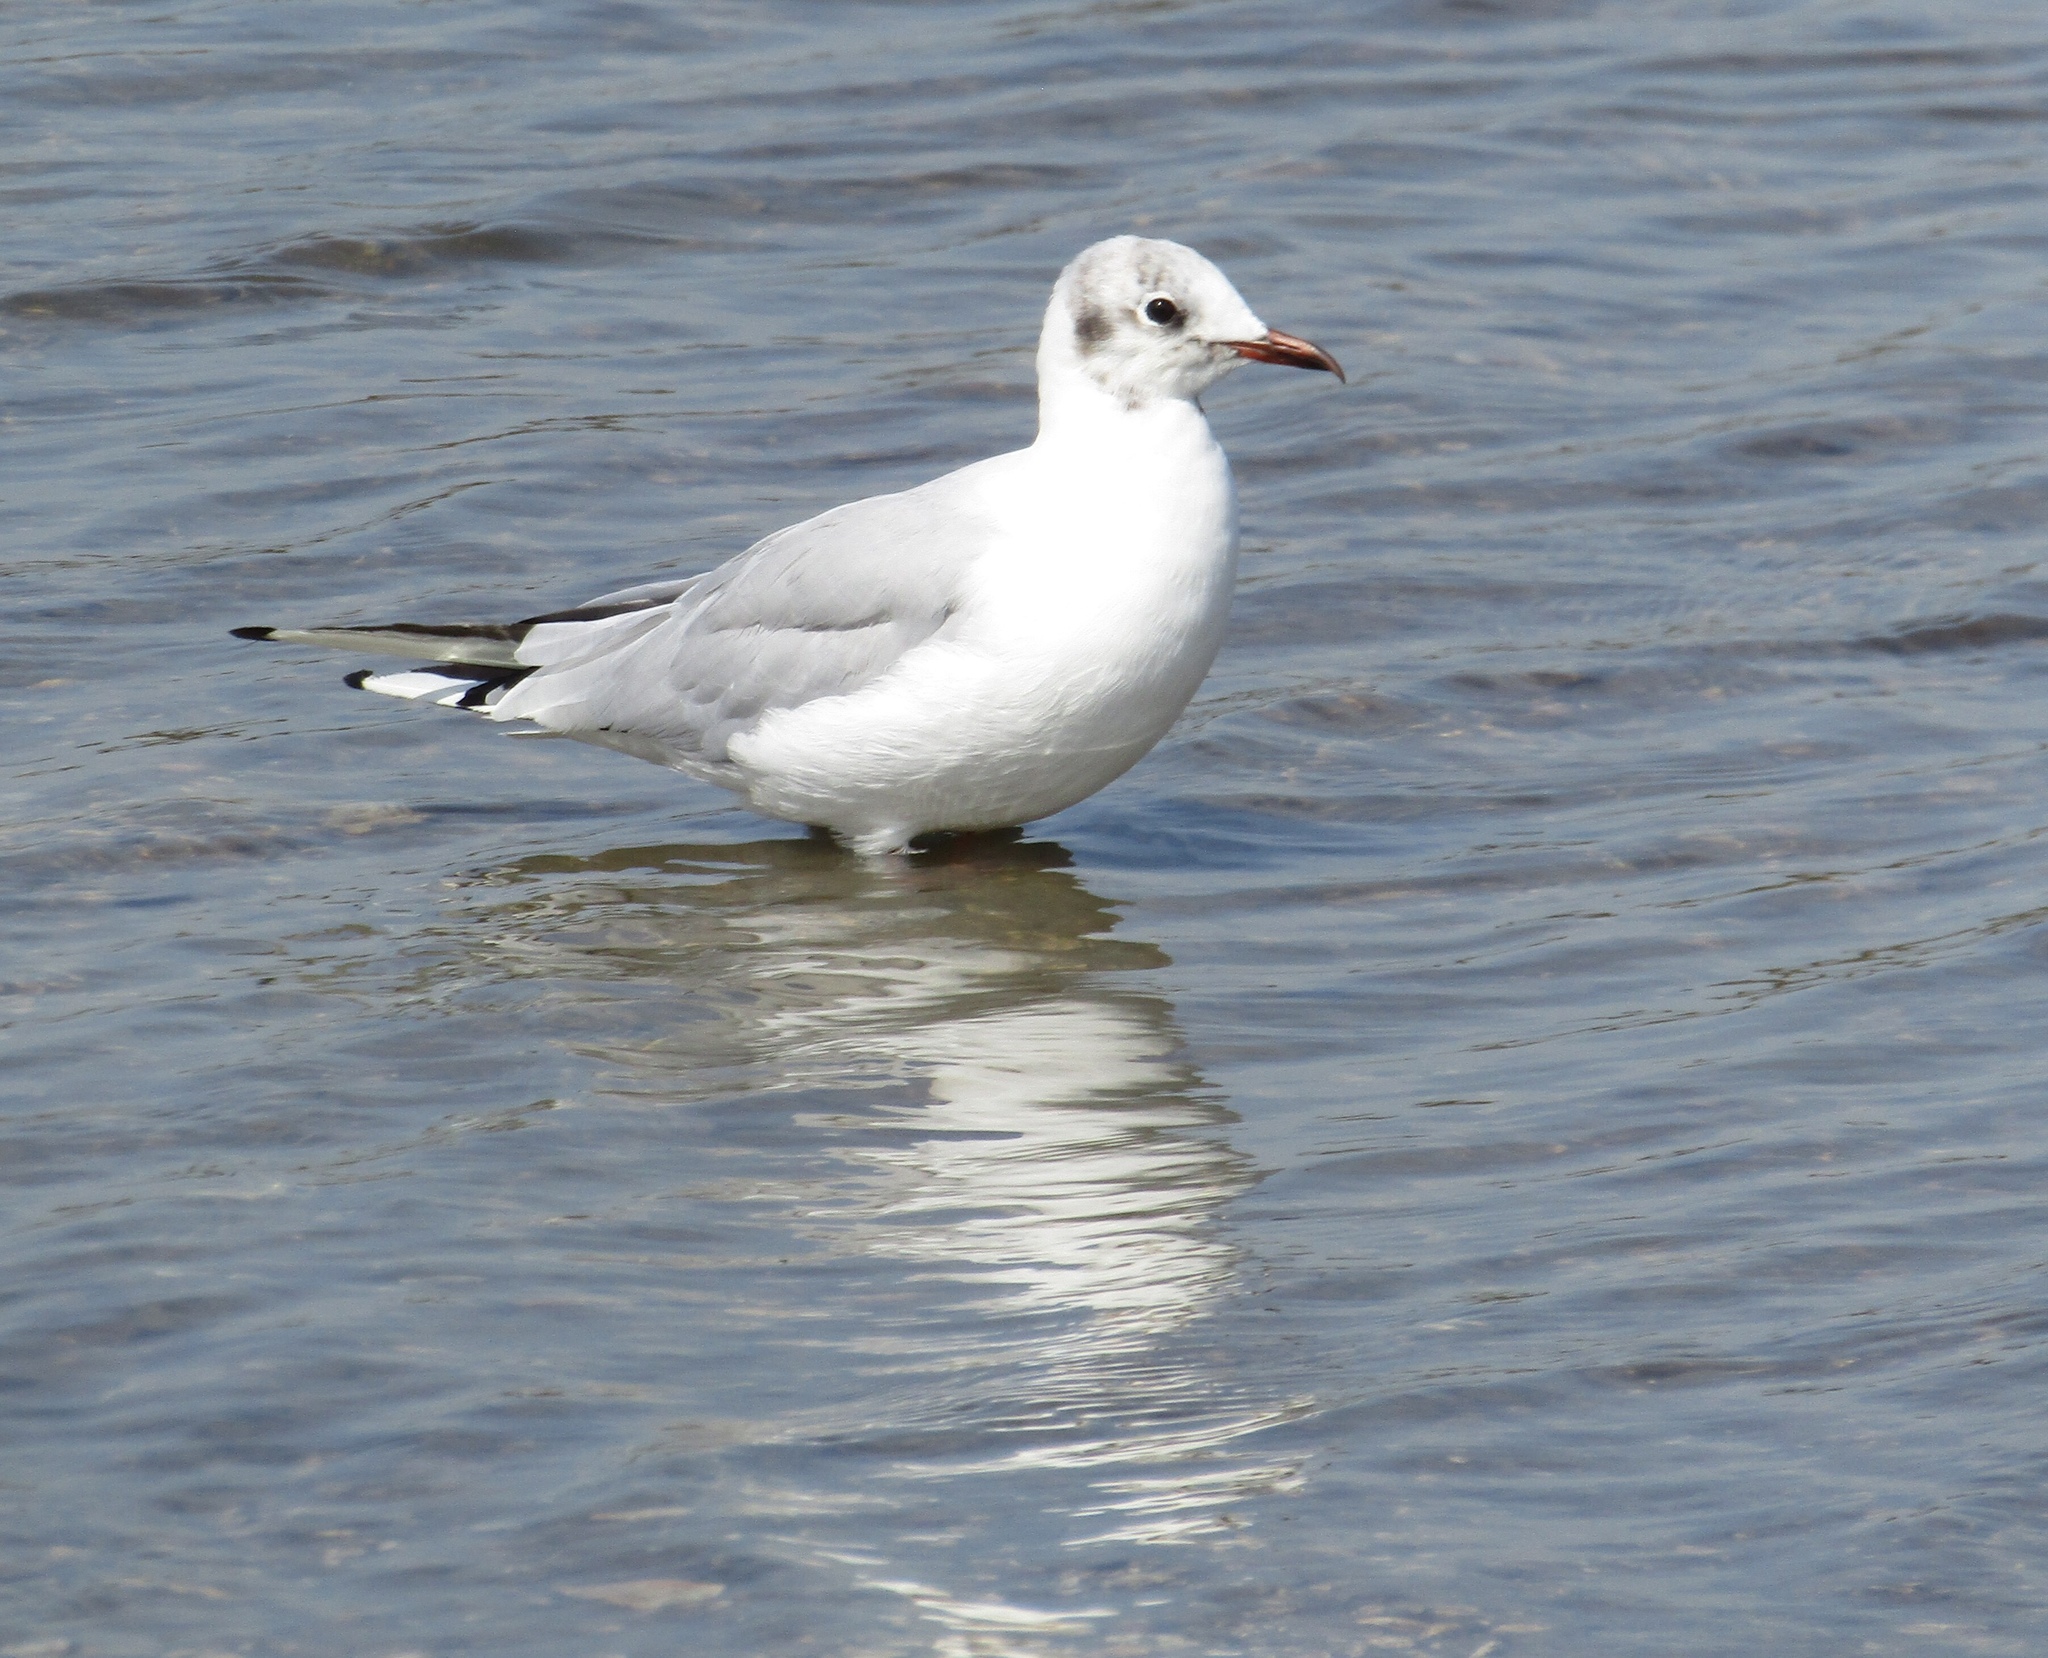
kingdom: Animalia
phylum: Chordata
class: Aves
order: Charadriiformes
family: Laridae
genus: Chroicocephalus
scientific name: Chroicocephalus ridibundus
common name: Black-headed gull
